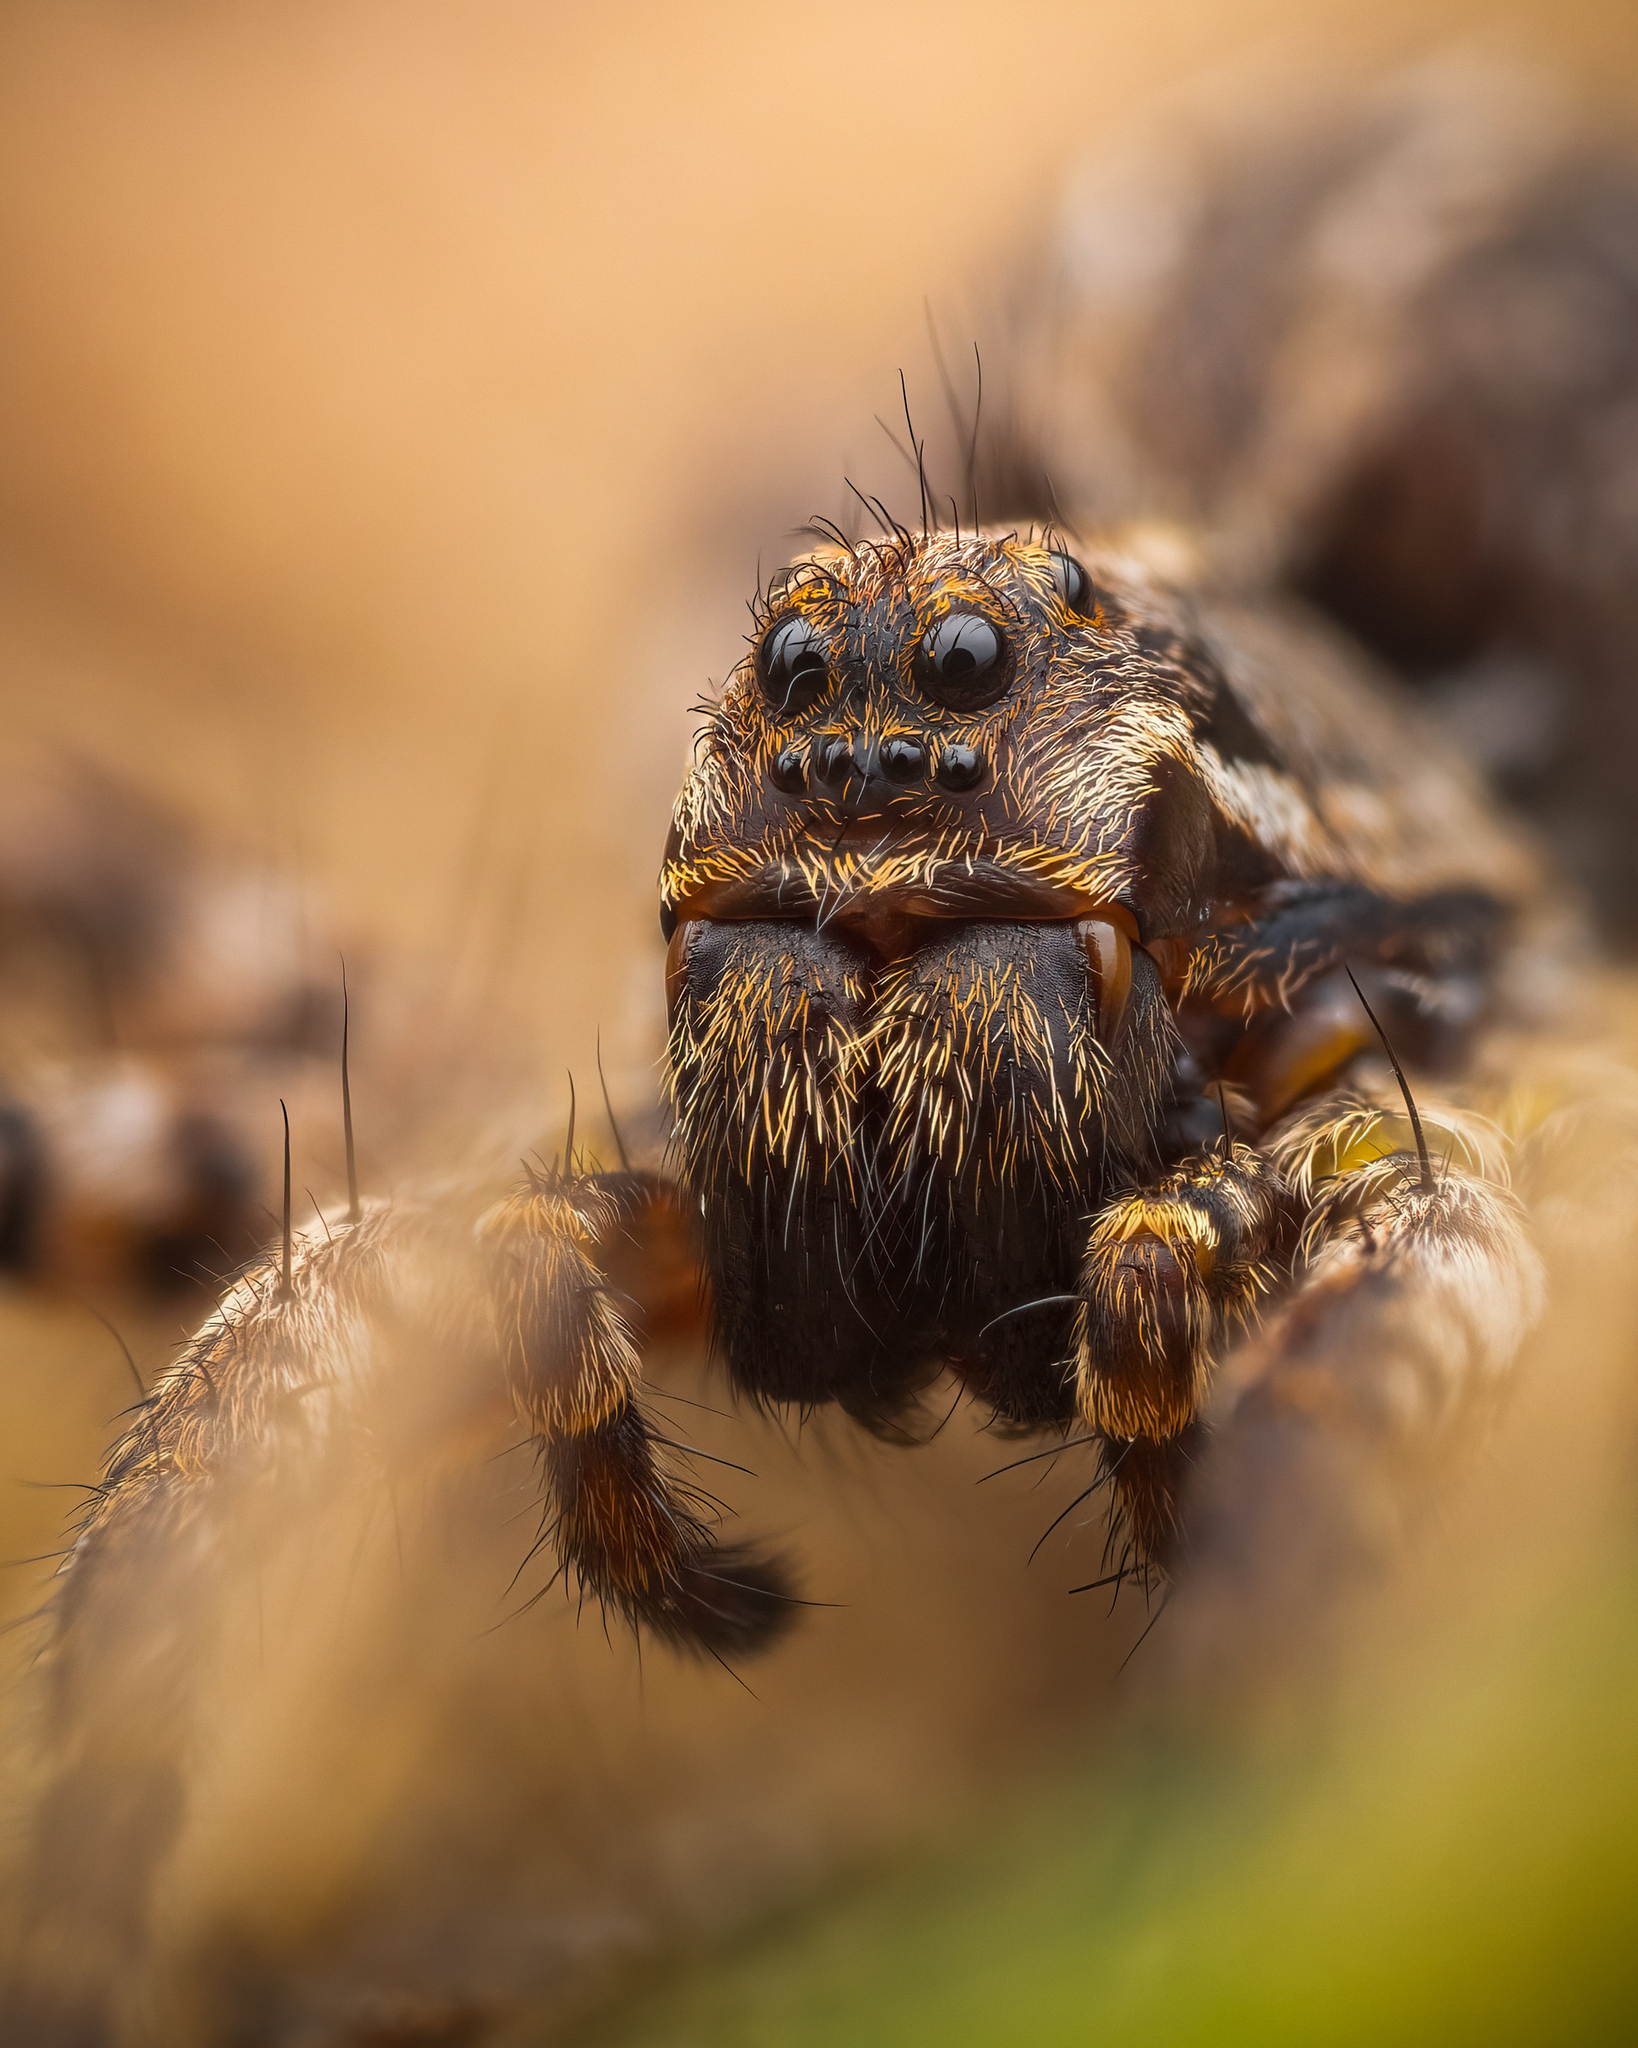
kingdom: Animalia
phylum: Arthropoda
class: Arachnida
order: Araneae
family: Lycosidae
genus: Alopecosa
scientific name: Alopecosa barbipes
